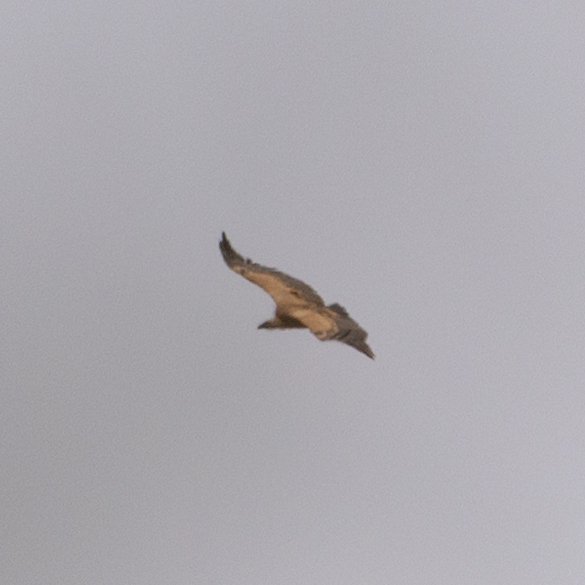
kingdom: Animalia
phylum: Chordata
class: Aves
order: Accipitriformes
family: Accipitridae
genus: Gyps
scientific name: Gyps fulvus
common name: Griffon vulture
